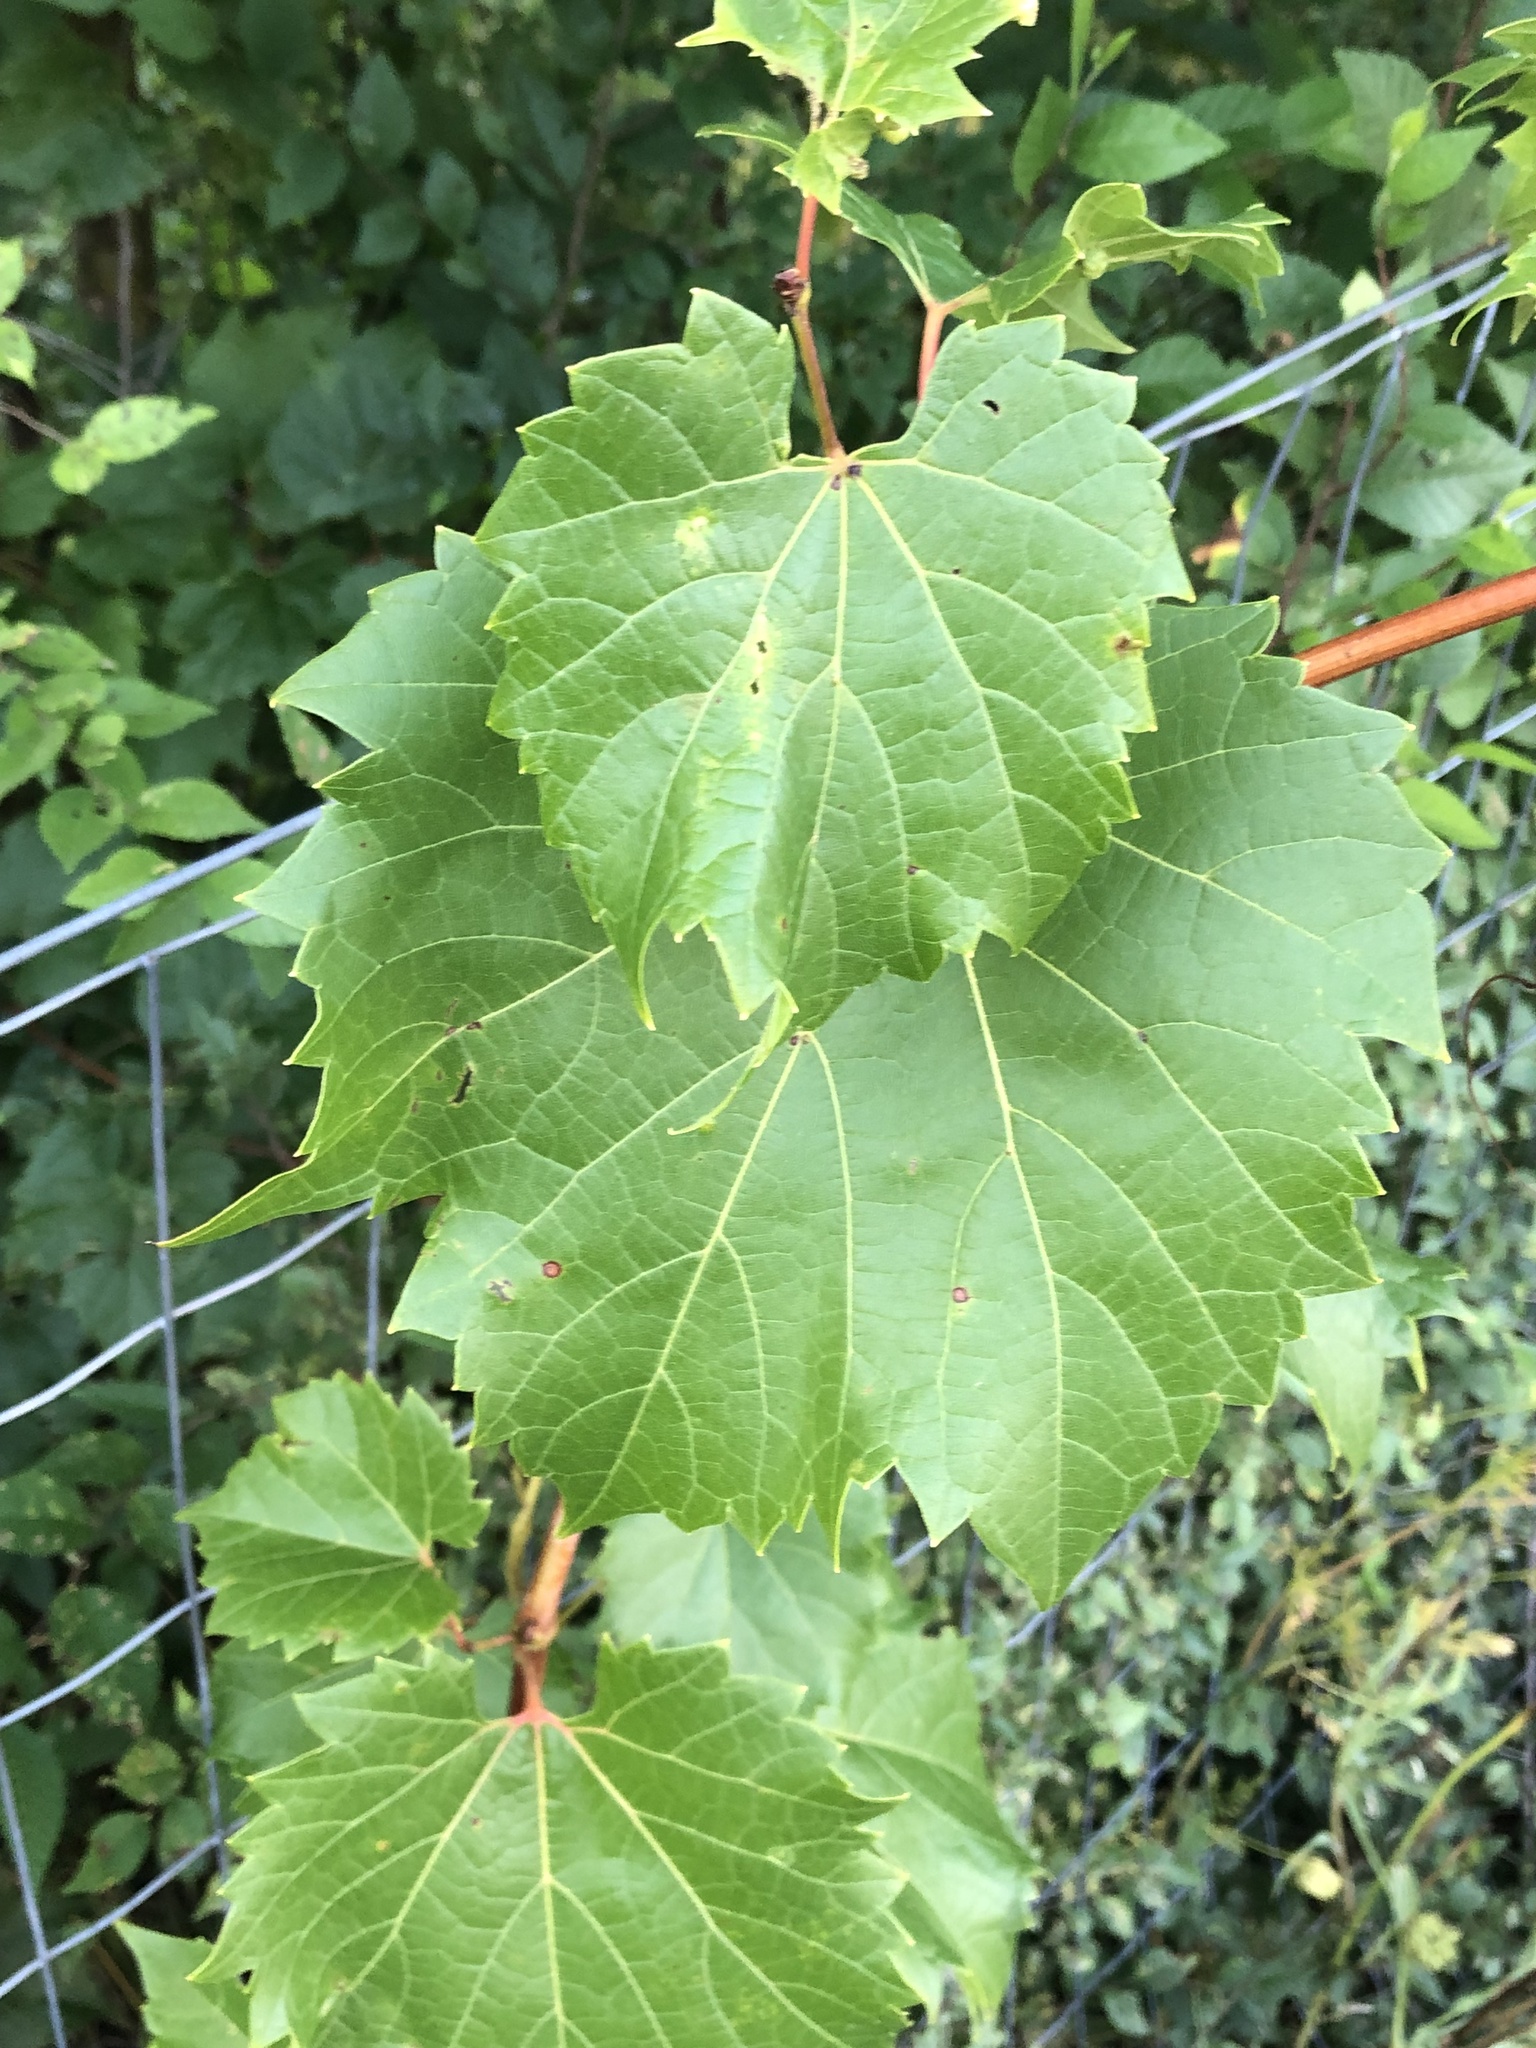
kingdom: Plantae
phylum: Tracheophyta
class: Magnoliopsida
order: Vitales
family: Vitaceae
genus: Vitis
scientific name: Vitis riparia
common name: Frost grape
